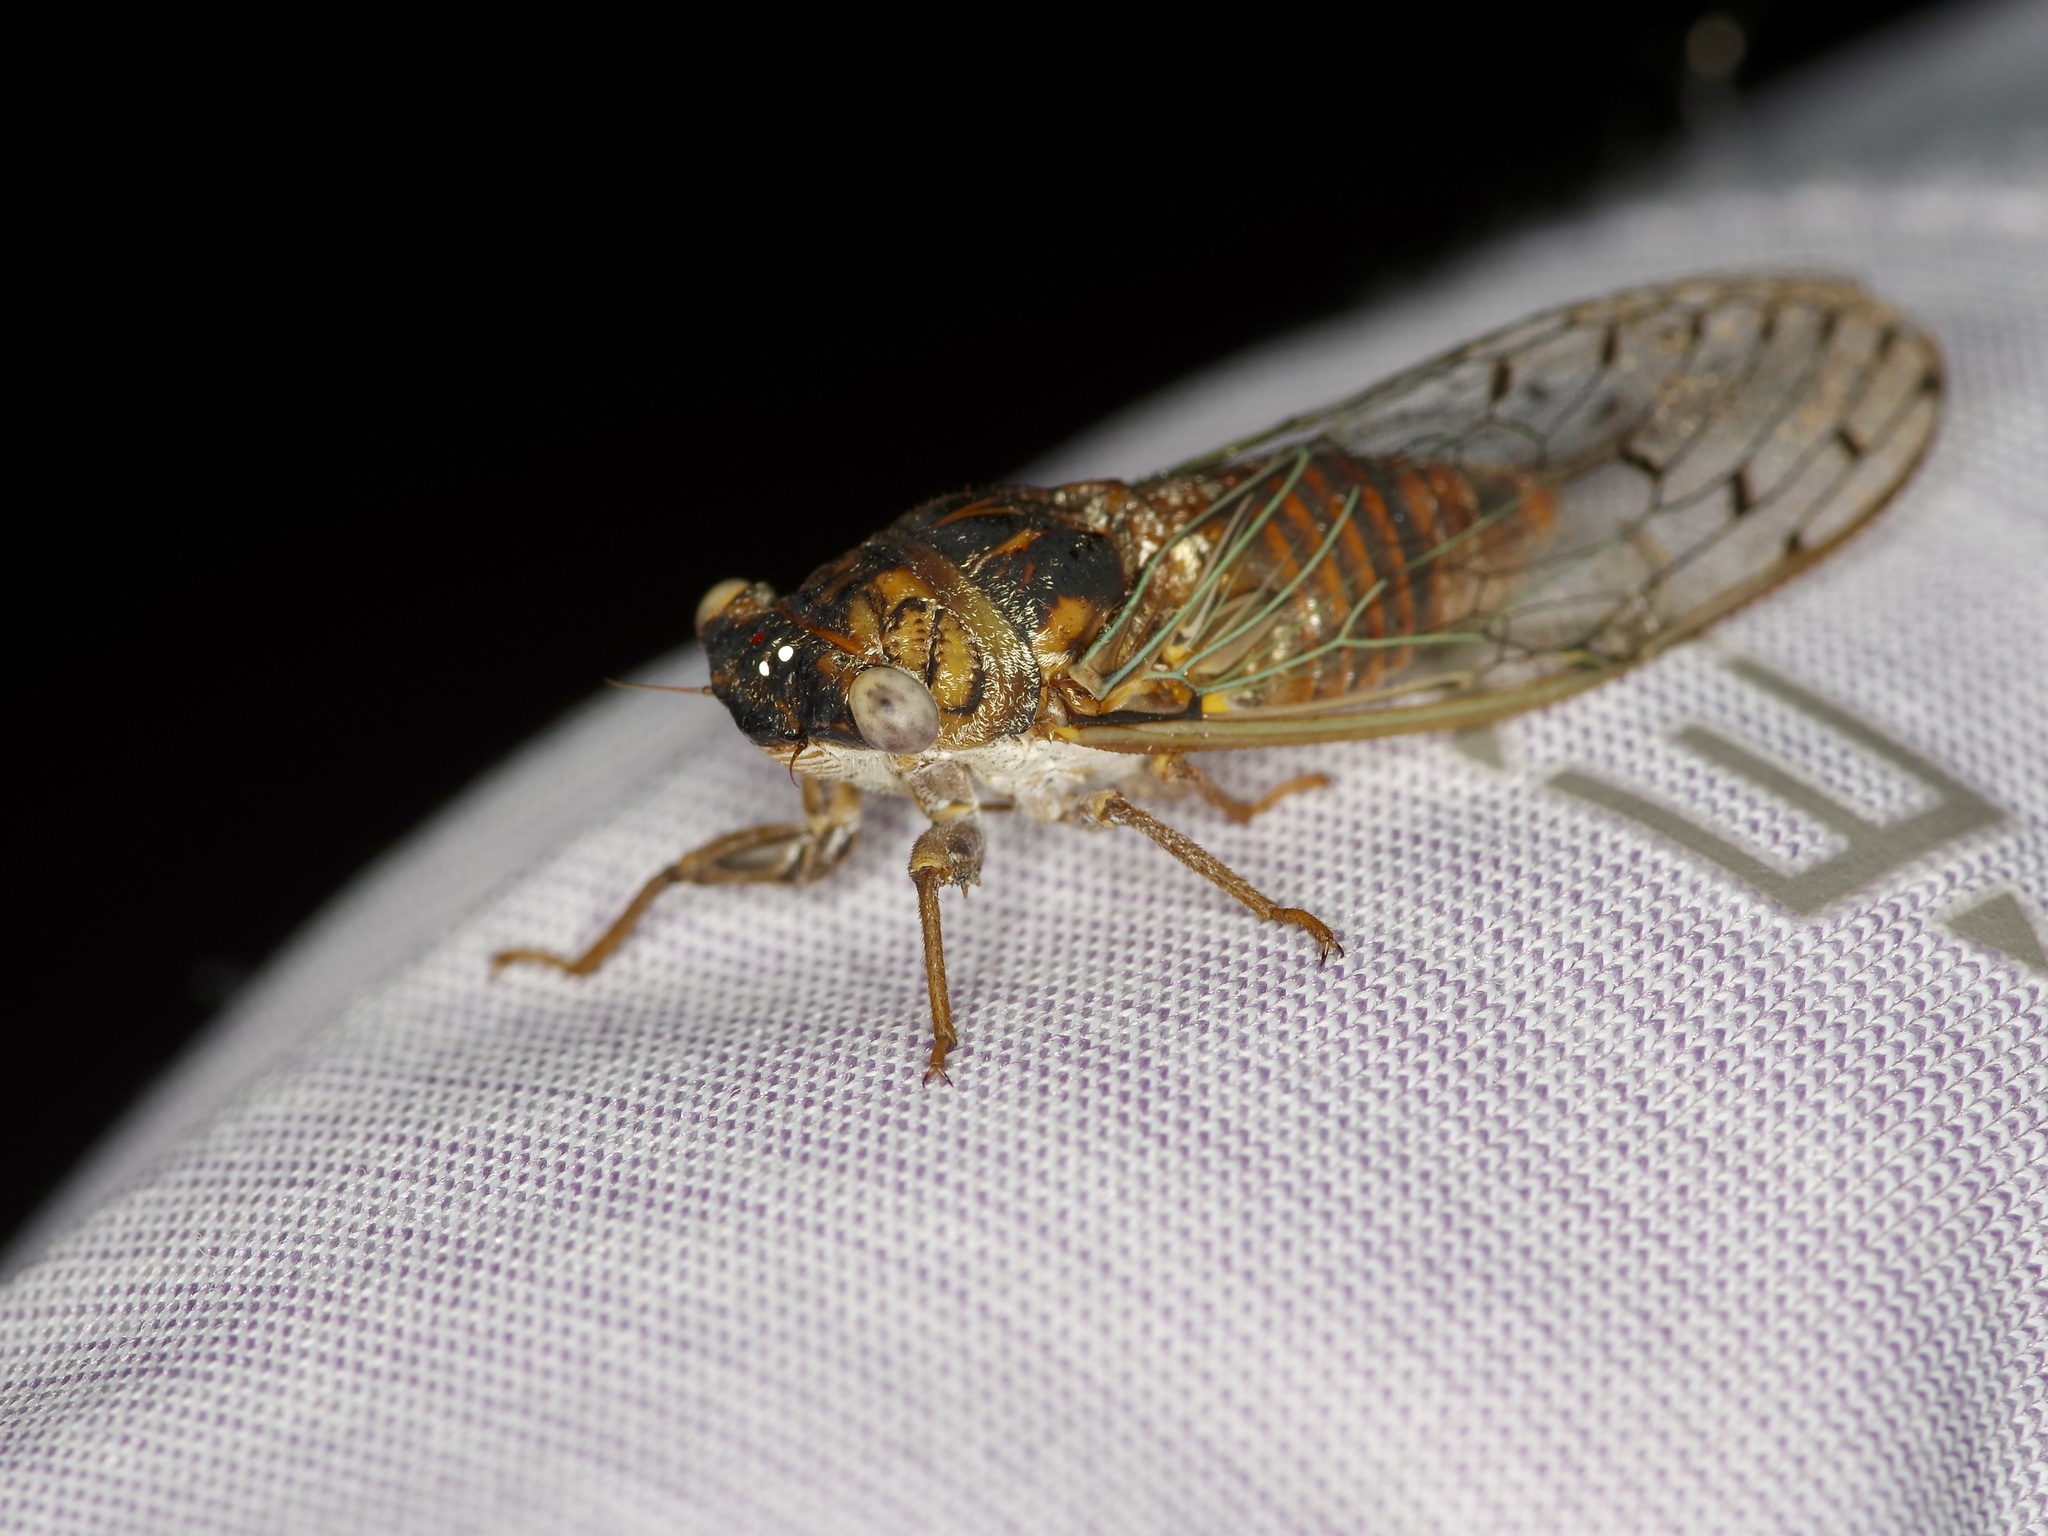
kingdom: Animalia
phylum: Arthropoda
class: Insecta
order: Hemiptera
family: Cicadidae
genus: Pacarina
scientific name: Pacarina puella
